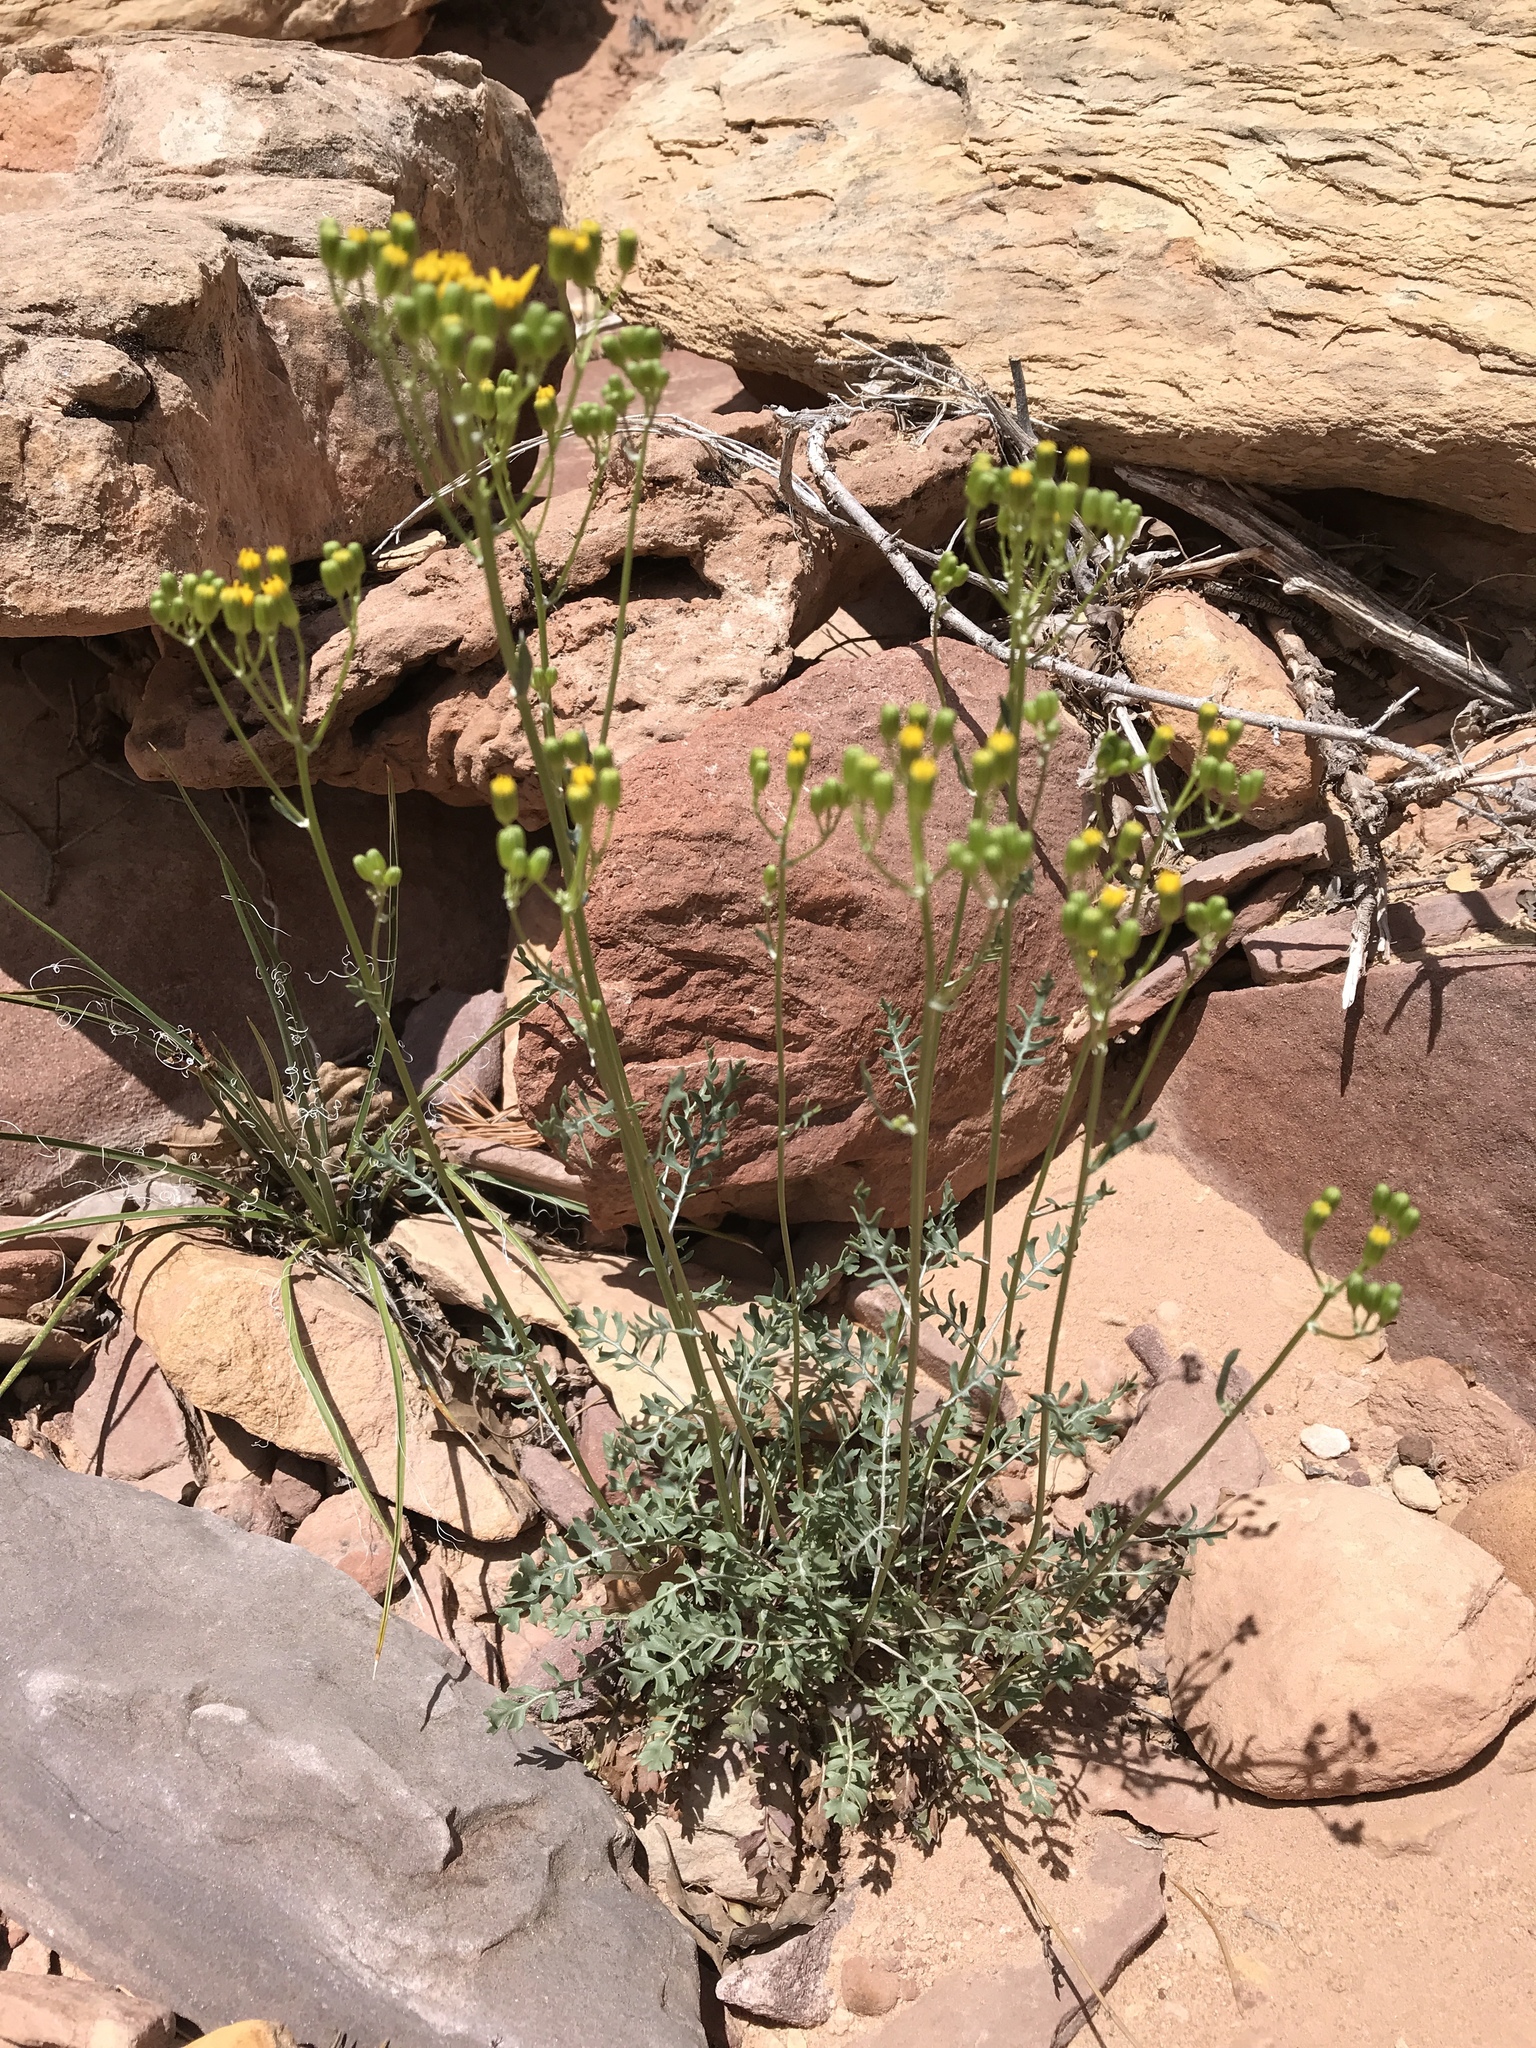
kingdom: Plantae
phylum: Tracheophyta
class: Magnoliopsida
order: Asterales
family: Asteraceae
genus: Packera
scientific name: Packera multilobata
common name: Lobe-leaf groundsel
